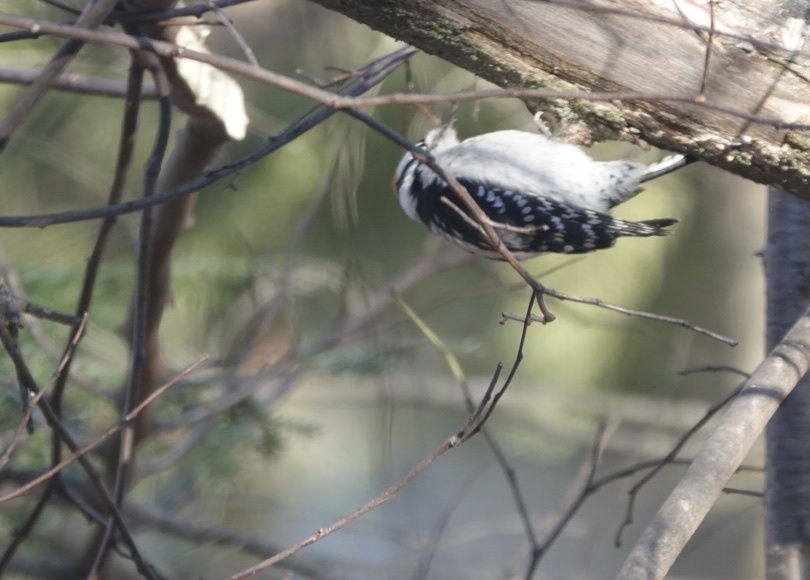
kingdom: Animalia
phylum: Chordata
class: Aves
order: Piciformes
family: Picidae
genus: Dryobates
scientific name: Dryobates pubescens
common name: Downy woodpecker
